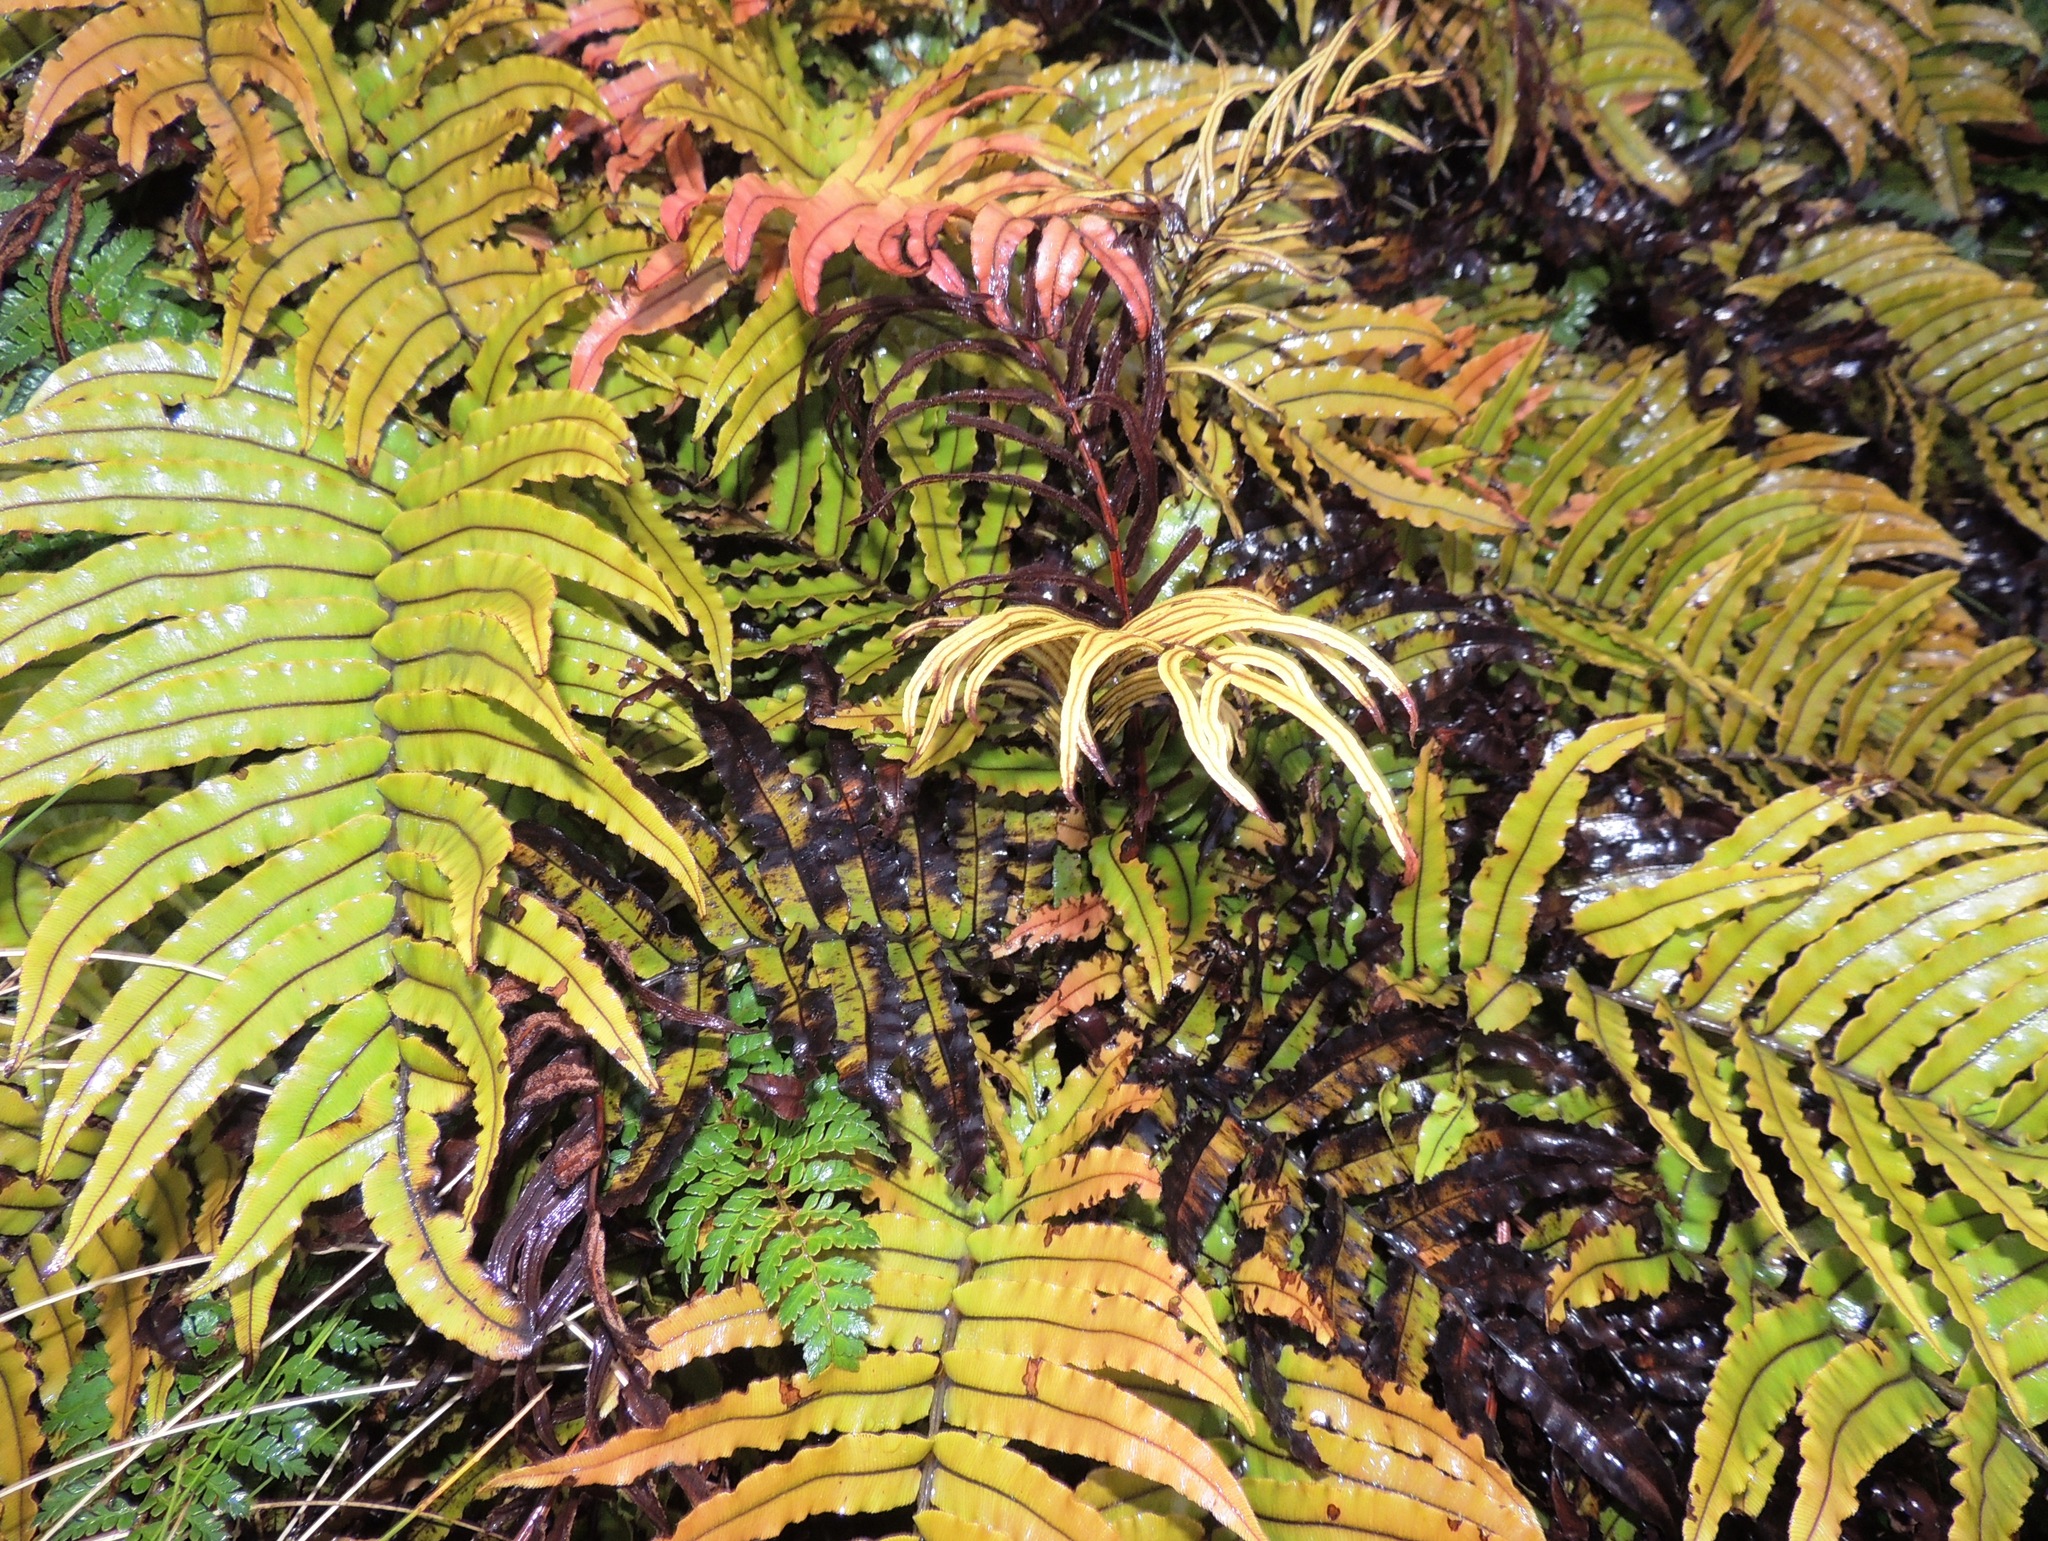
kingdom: Plantae
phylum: Tracheophyta
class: Polypodiopsida
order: Polypodiales
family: Blechnaceae
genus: Parablechnum
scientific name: Parablechnum montanum
